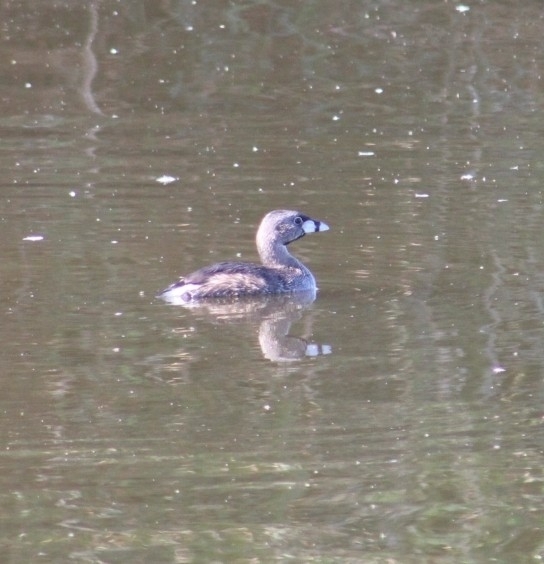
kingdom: Animalia
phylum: Chordata
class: Aves
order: Podicipediformes
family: Podicipedidae
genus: Podilymbus
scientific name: Podilymbus podiceps
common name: Pied-billed grebe
